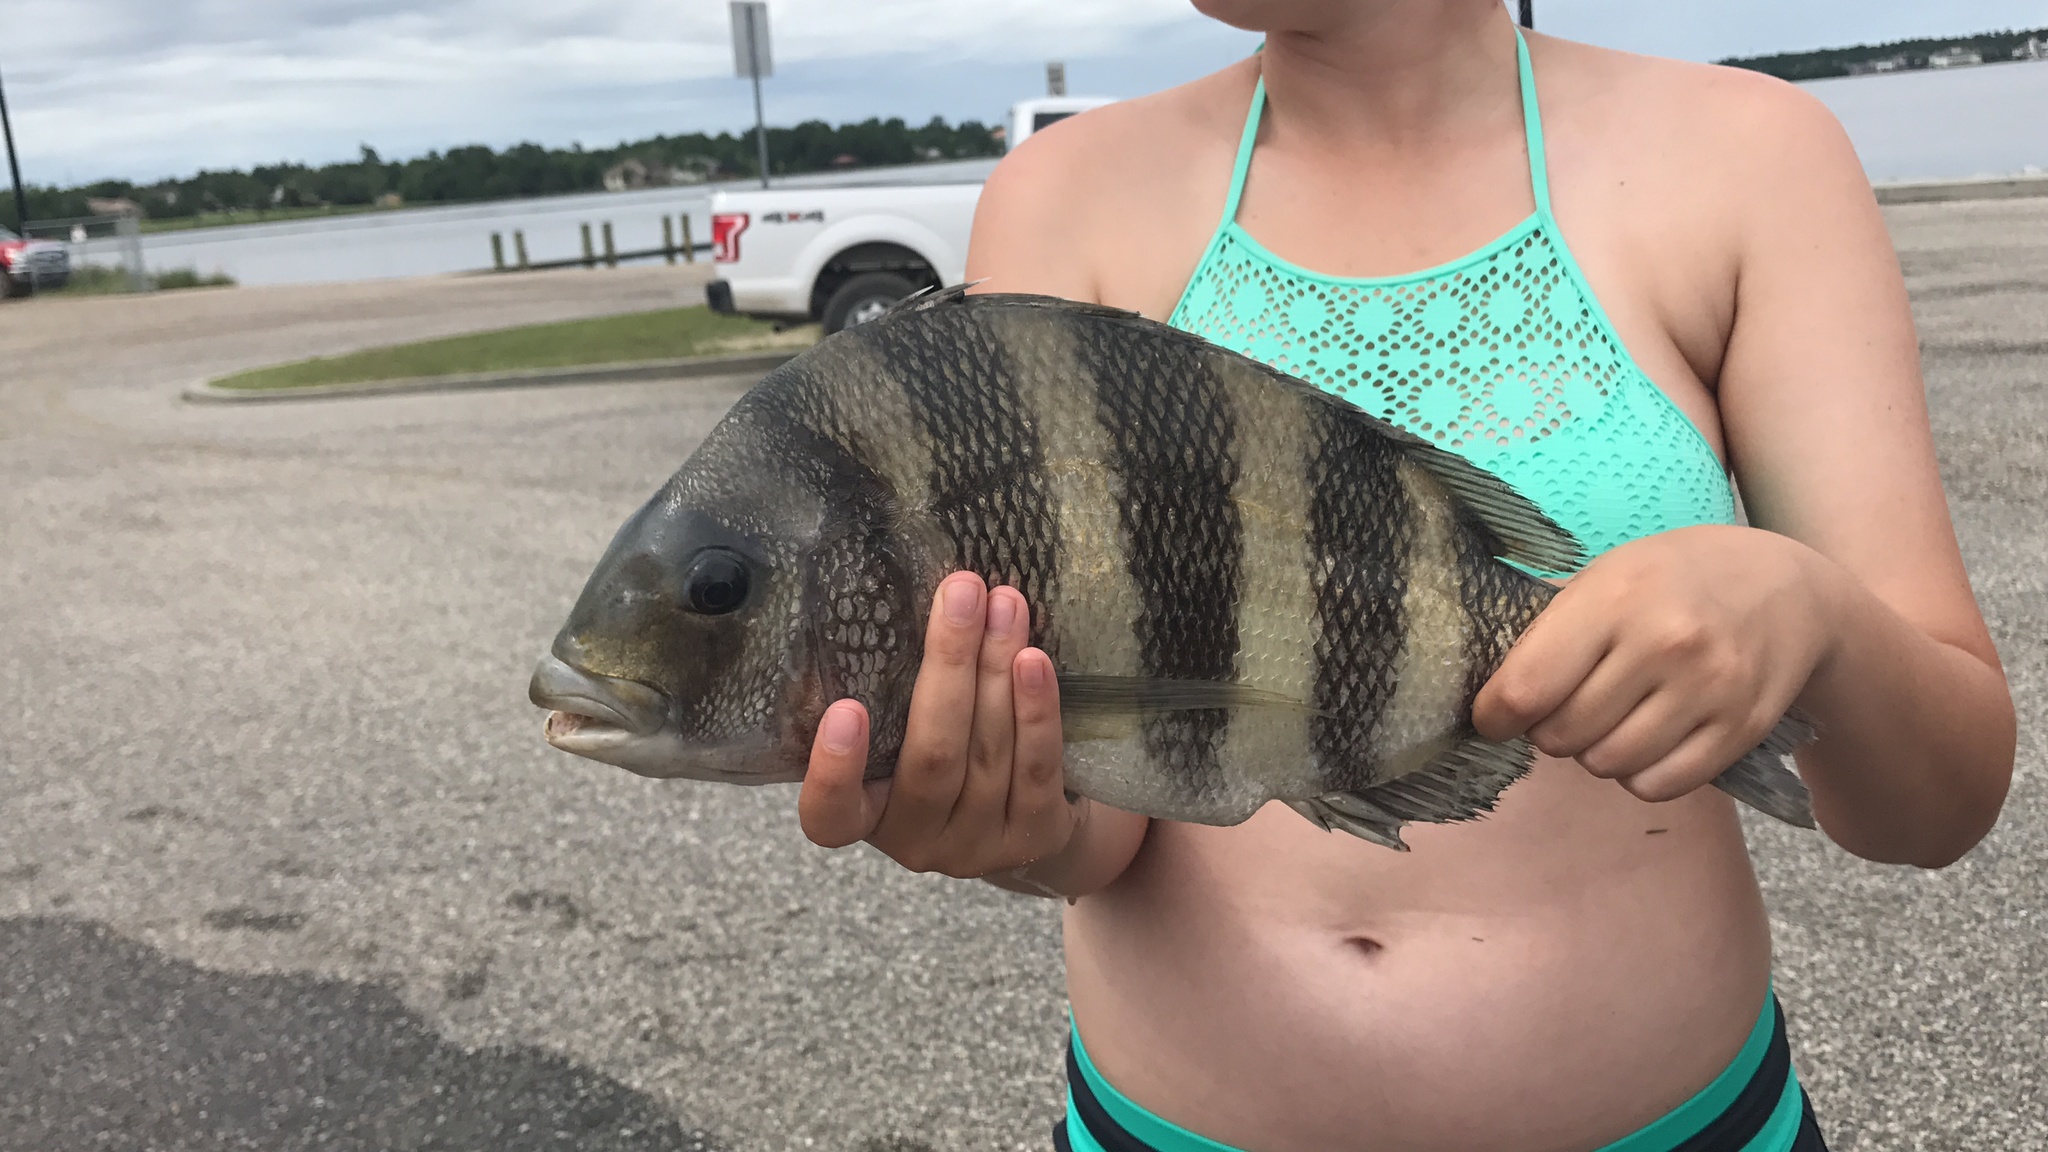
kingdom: Animalia
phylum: Chordata
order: Perciformes
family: Sparidae
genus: Archosargus
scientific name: Archosargus probatocephalus
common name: Sheepshead
